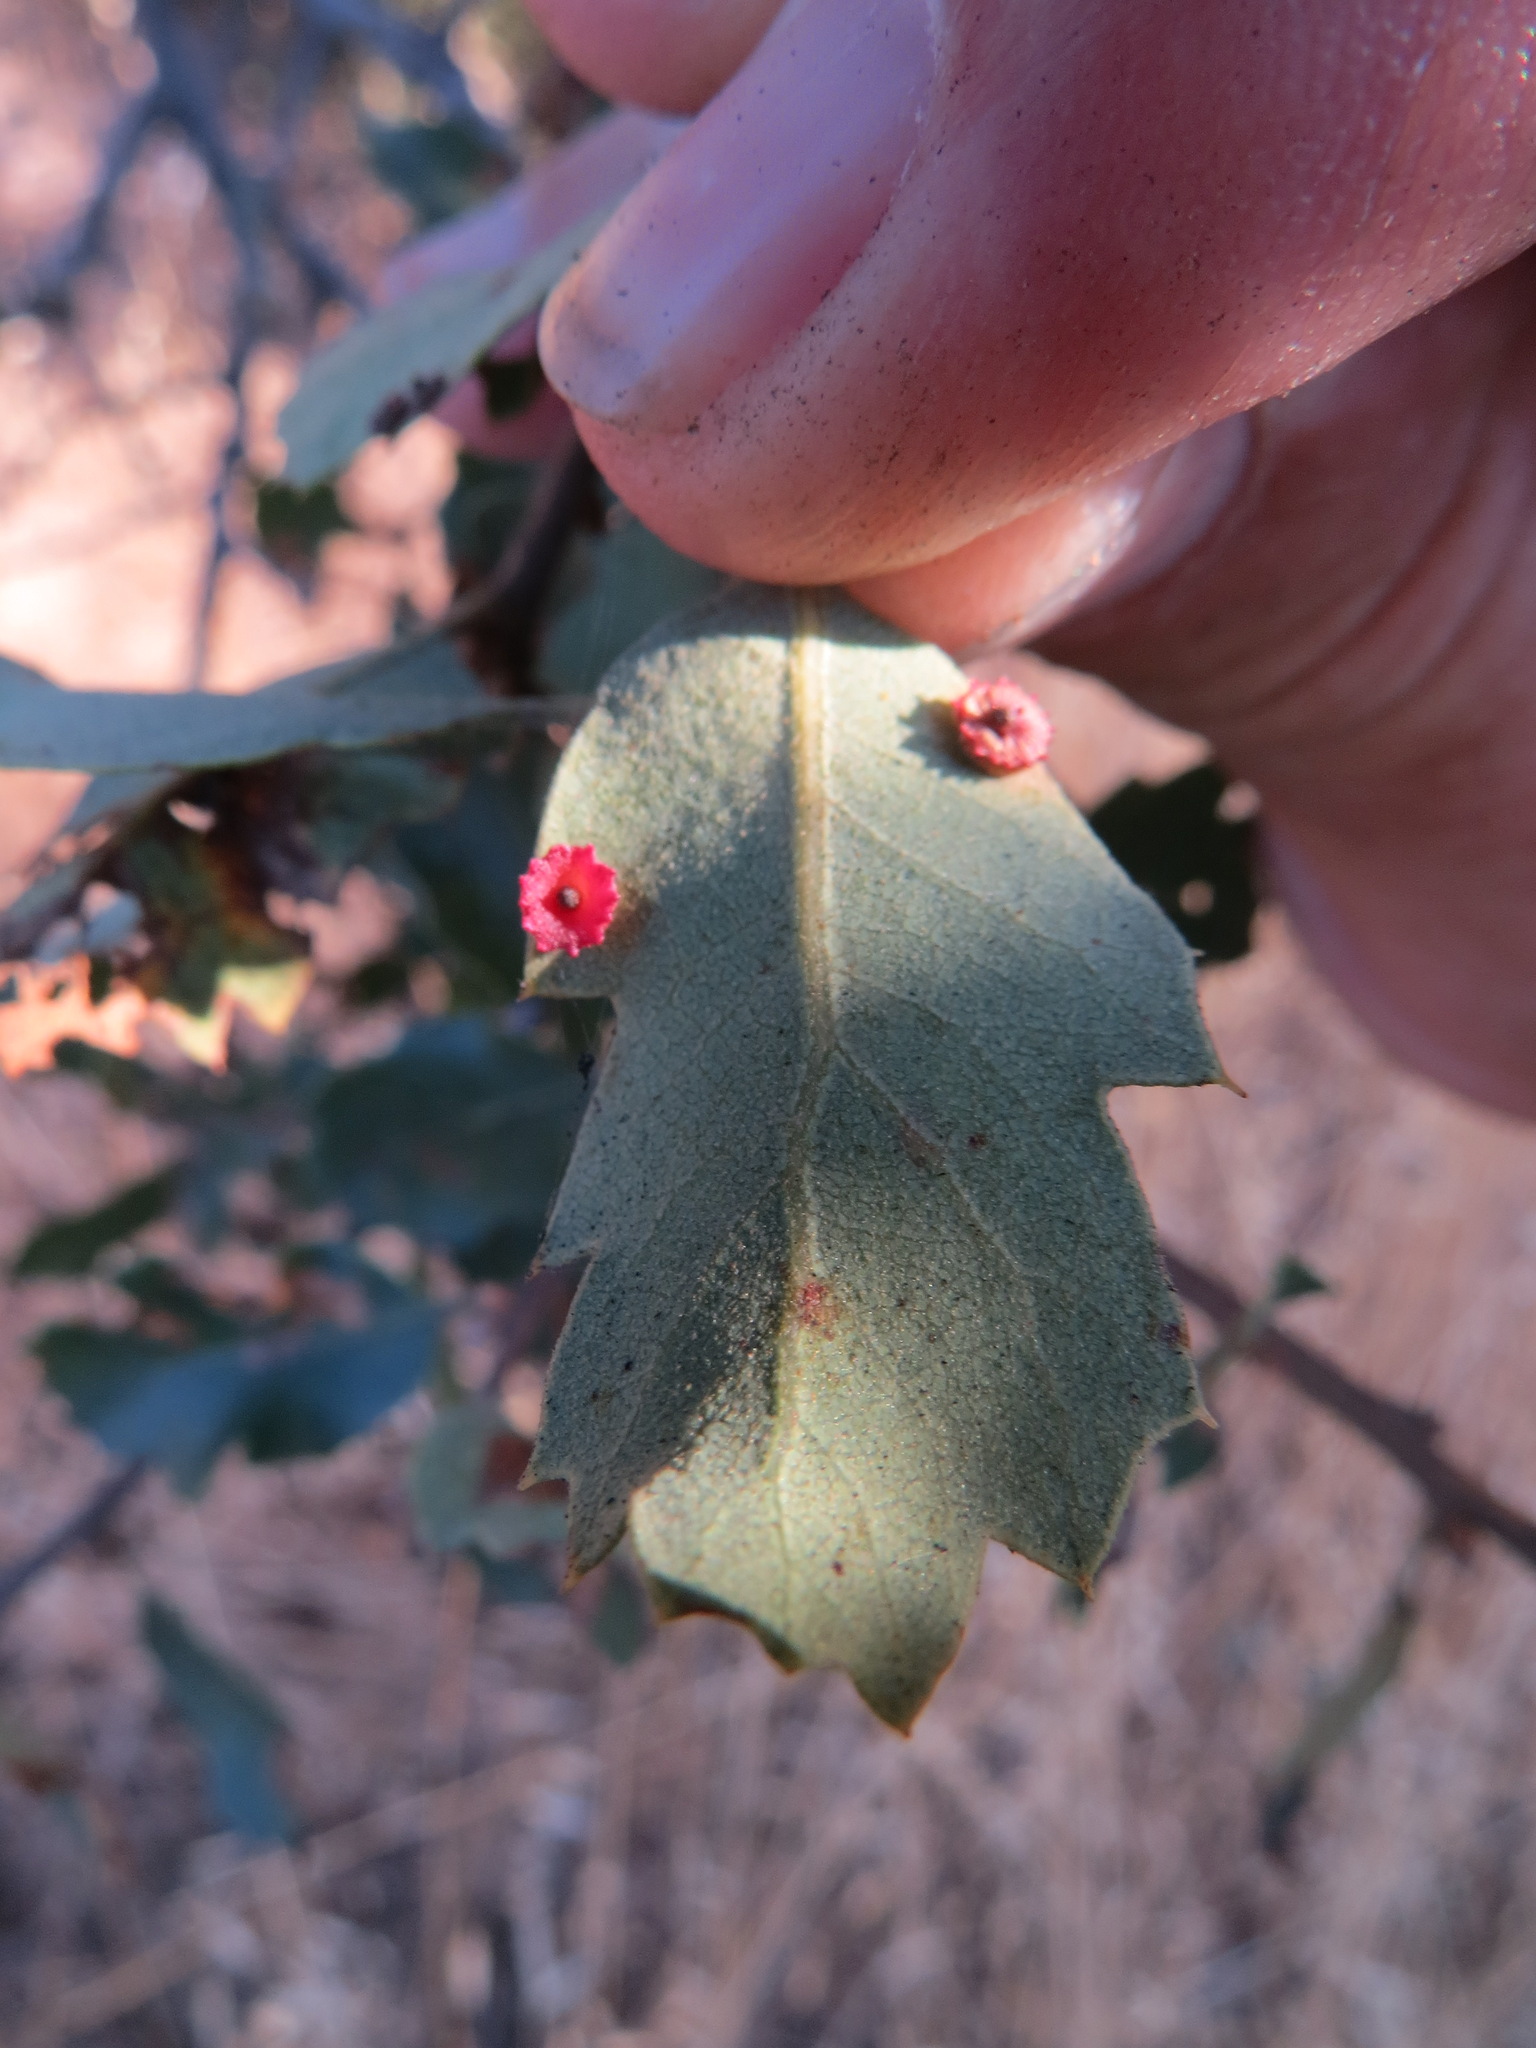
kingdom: Animalia
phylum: Arthropoda
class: Insecta
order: Hymenoptera
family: Cynipidae
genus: Andricus
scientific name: Andricus
